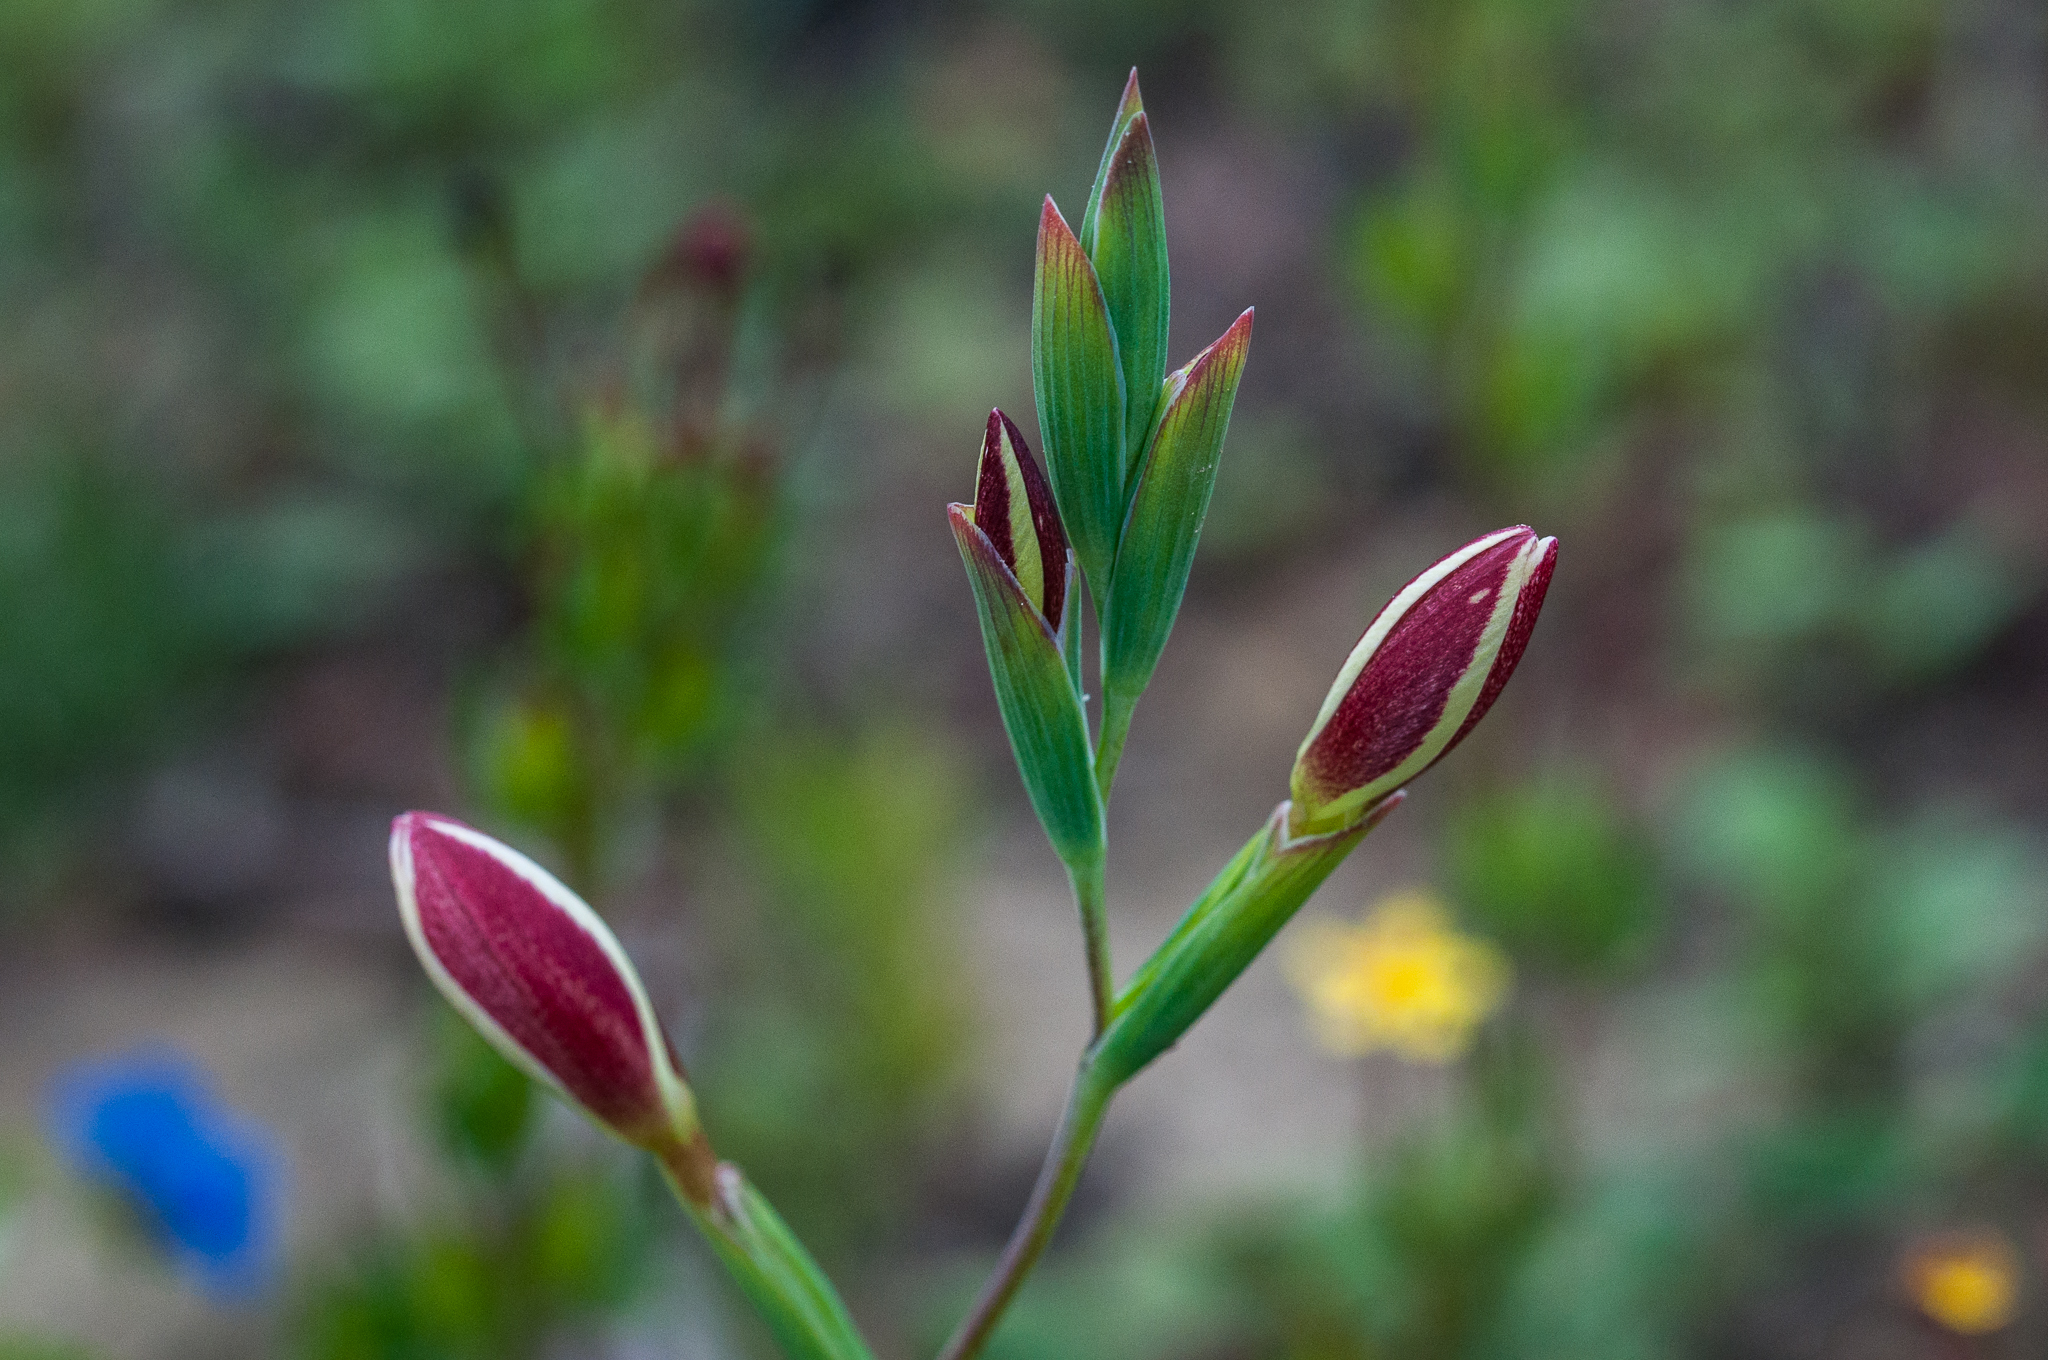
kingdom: Plantae
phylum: Tracheophyta
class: Liliopsida
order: Asparagales
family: Iridaceae
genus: Hesperantha
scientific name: Hesperantha falcata
